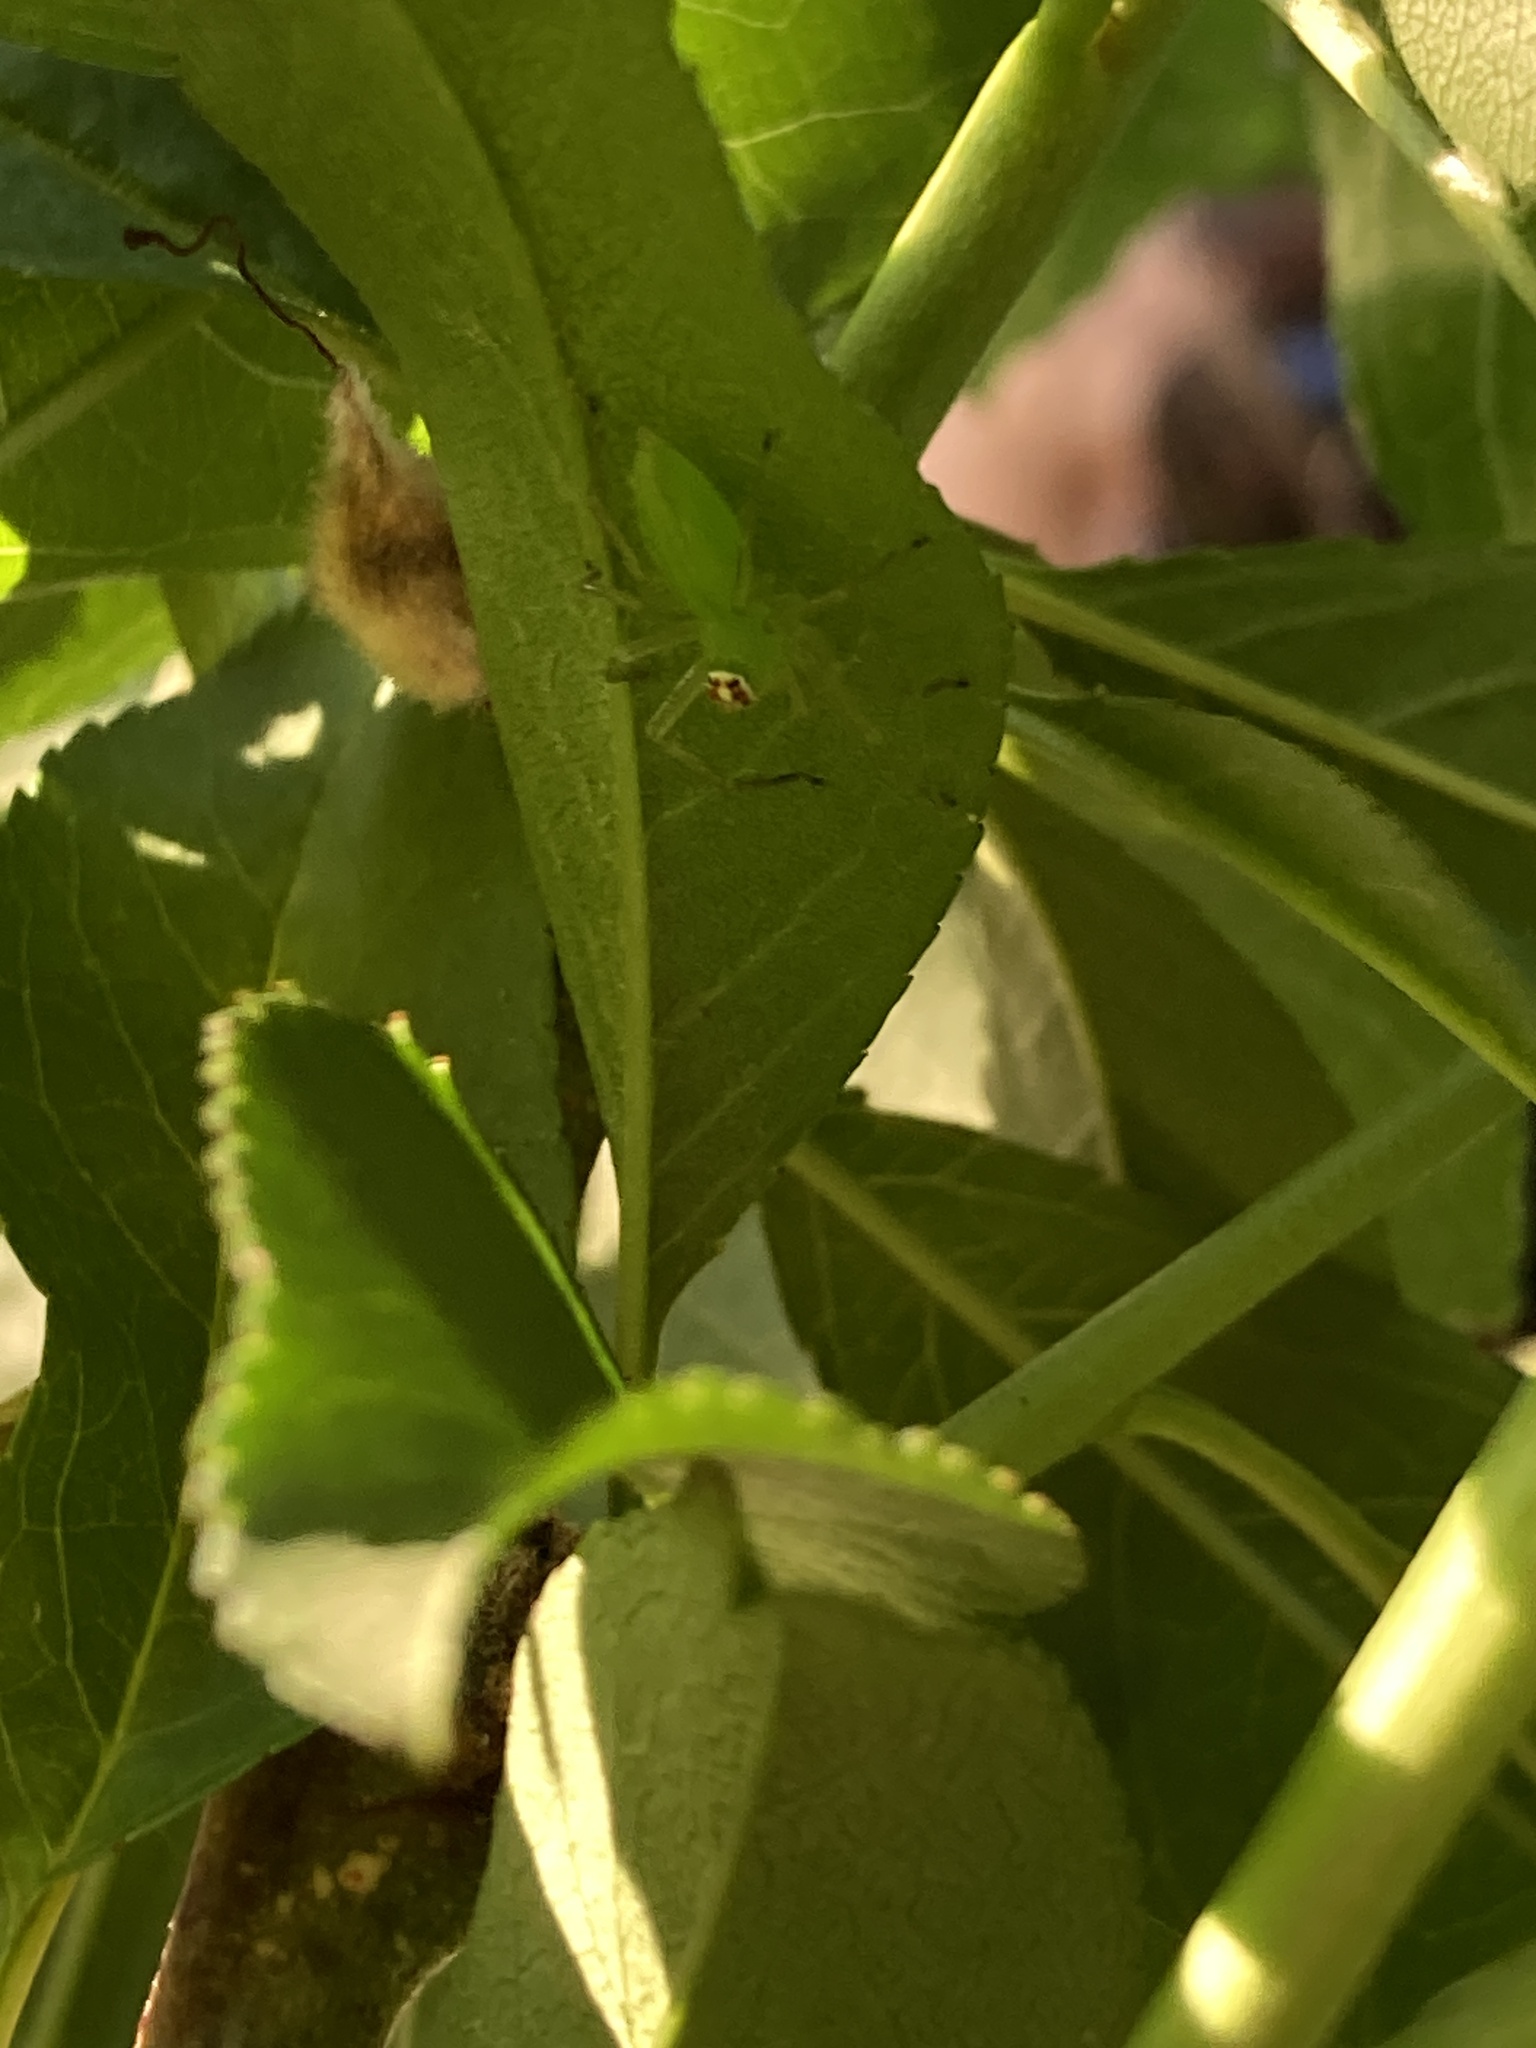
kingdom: Animalia
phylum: Arthropoda
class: Arachnida
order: Araneae
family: Salticidae
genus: Lyssomanes
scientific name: Lyssomanes viridis
